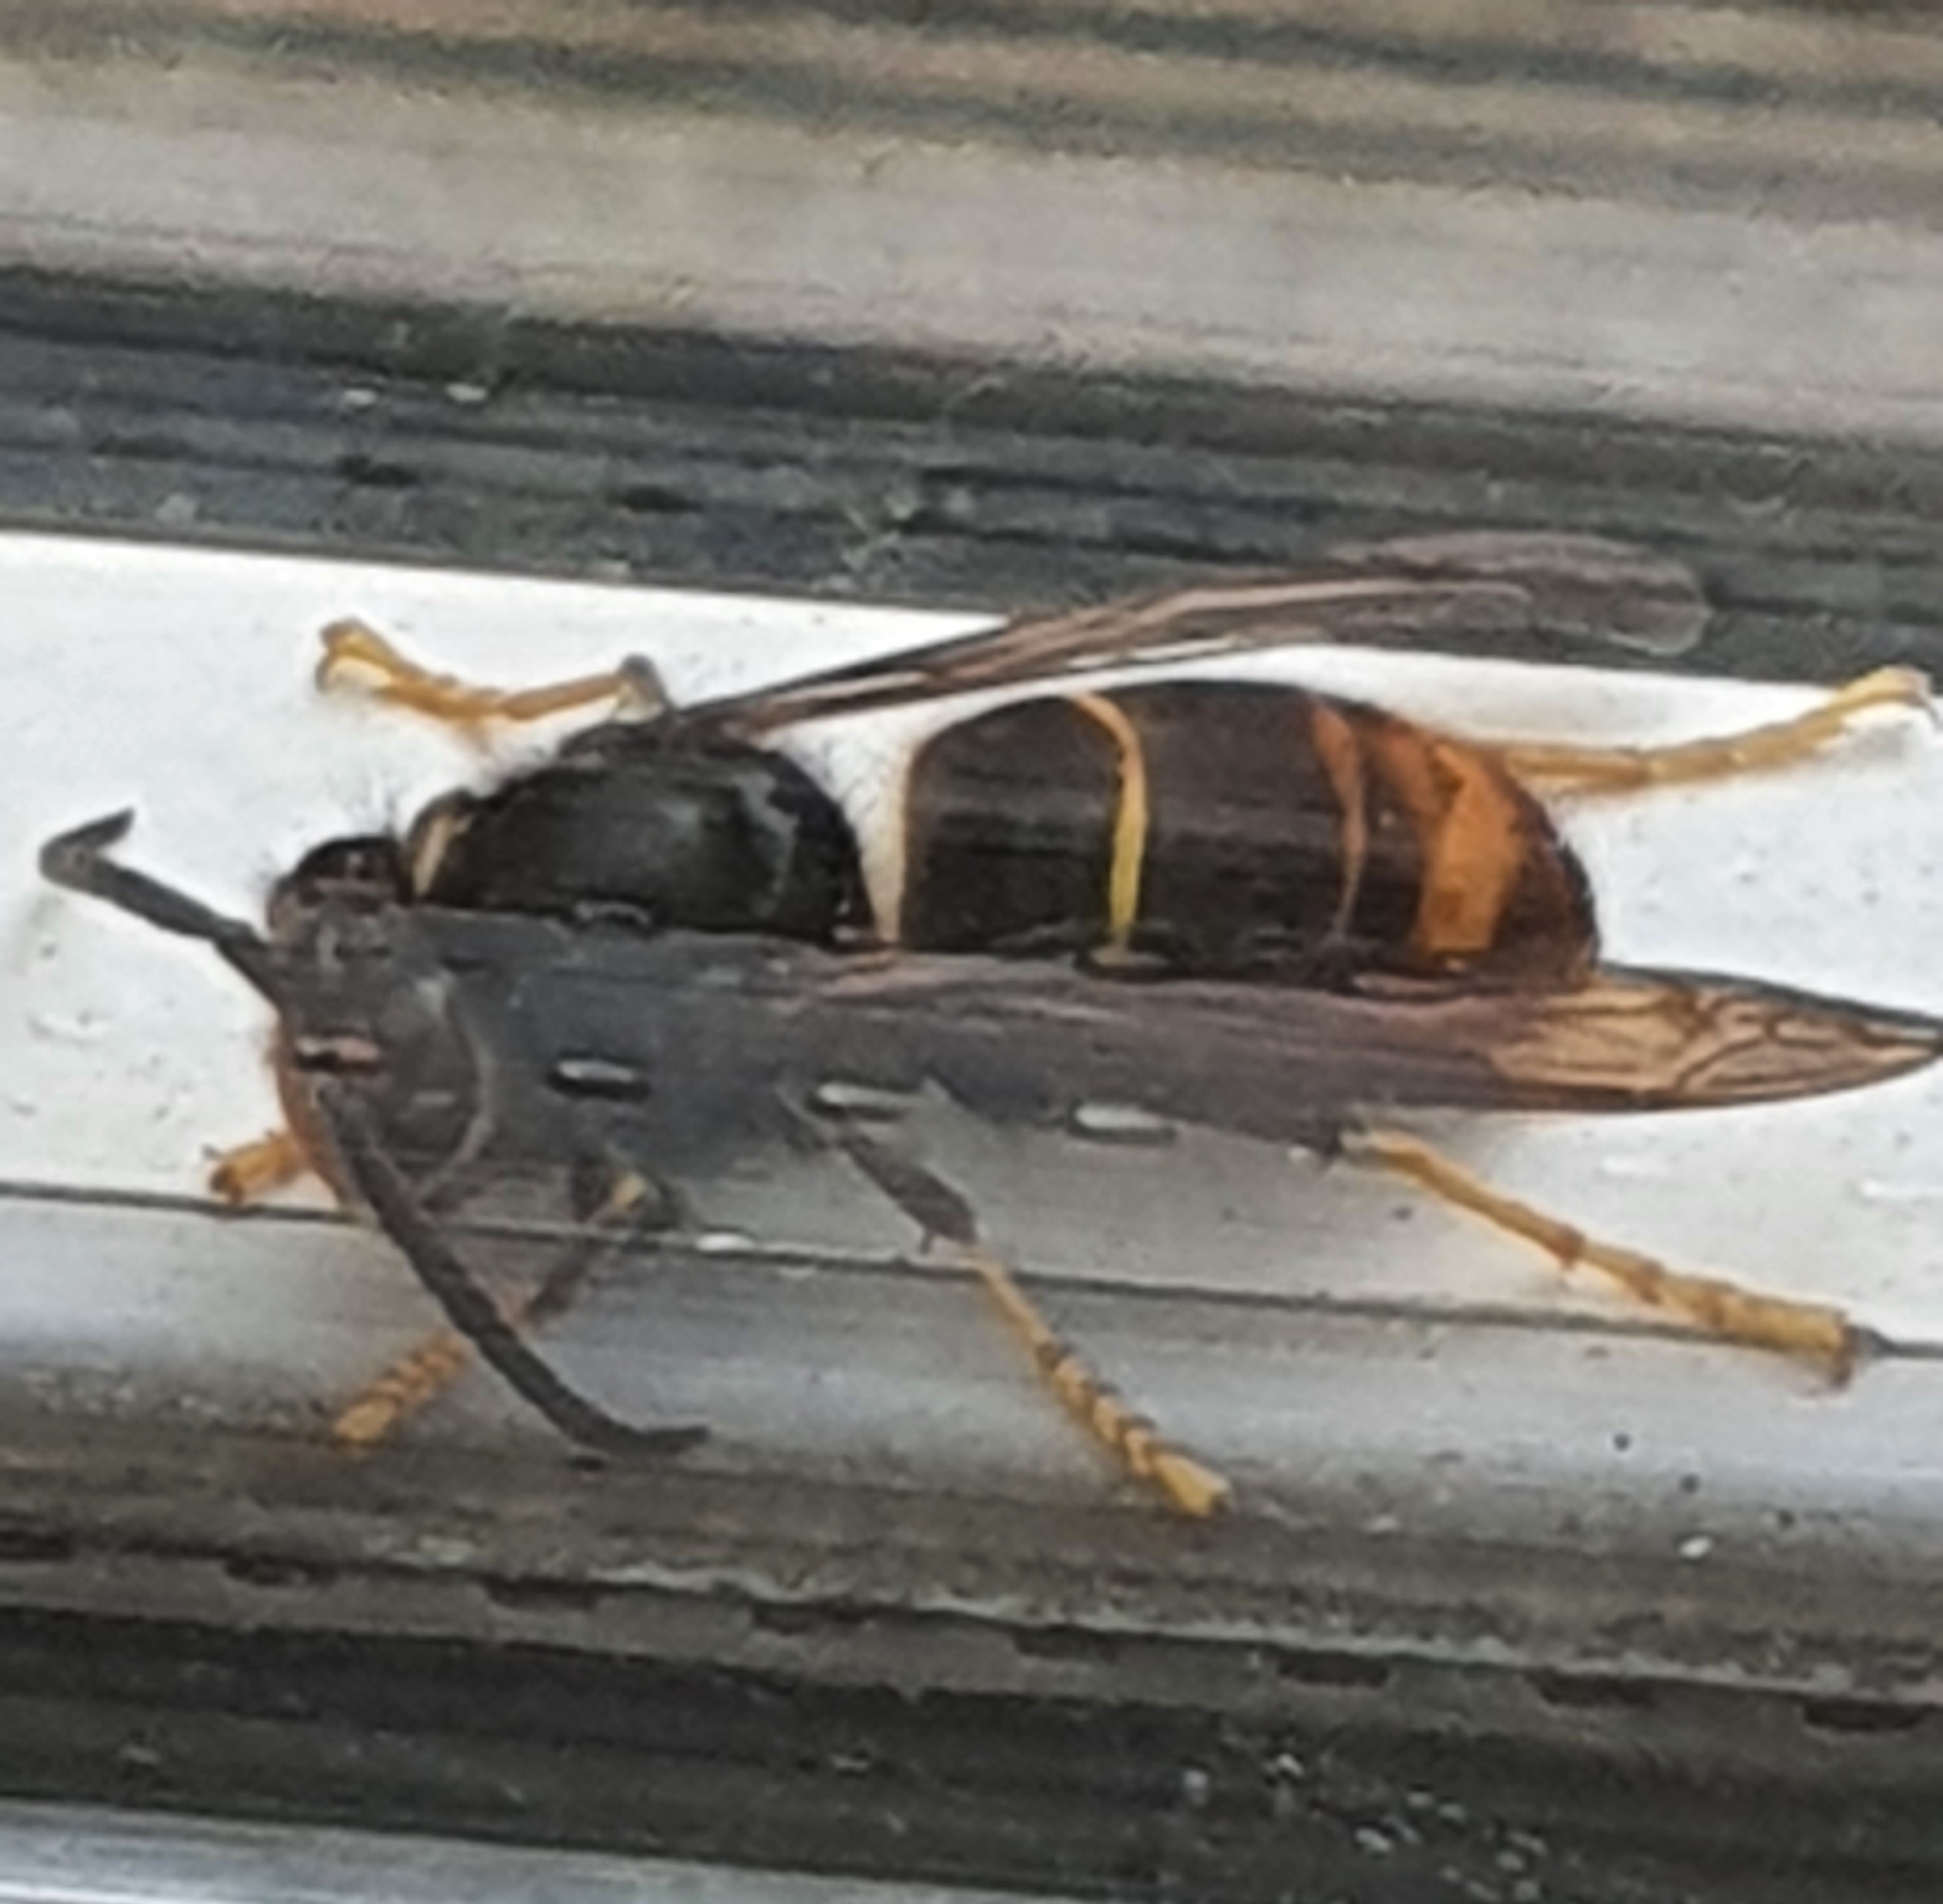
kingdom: Animalia
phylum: Arthropoda
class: Insecta
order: Hymenoptera
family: Vespidae
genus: Vespa
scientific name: Vespa velutina
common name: Asian hornet
